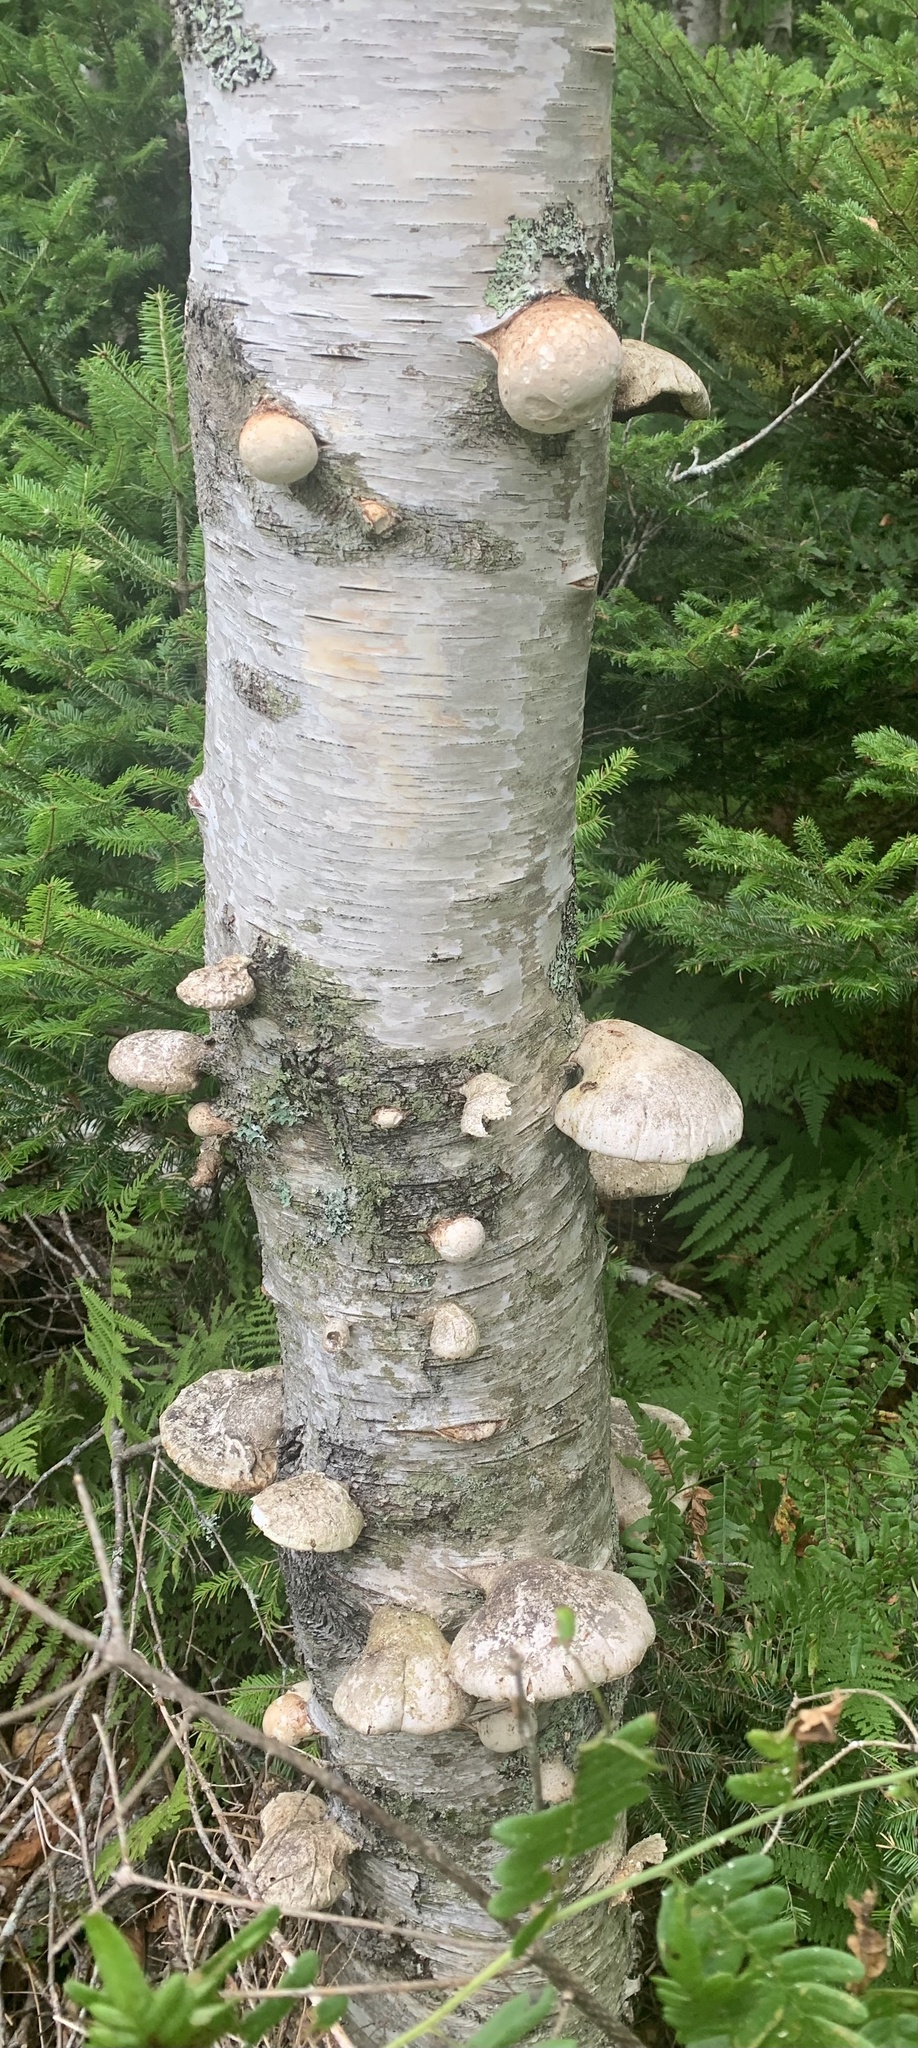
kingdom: Fungi
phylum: Basidiomycota
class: Agaricomycetes
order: Polyporales
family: Fomitopsidaceae
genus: Fomitopsis
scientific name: Fomitopsis betulina
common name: Birch polypore
